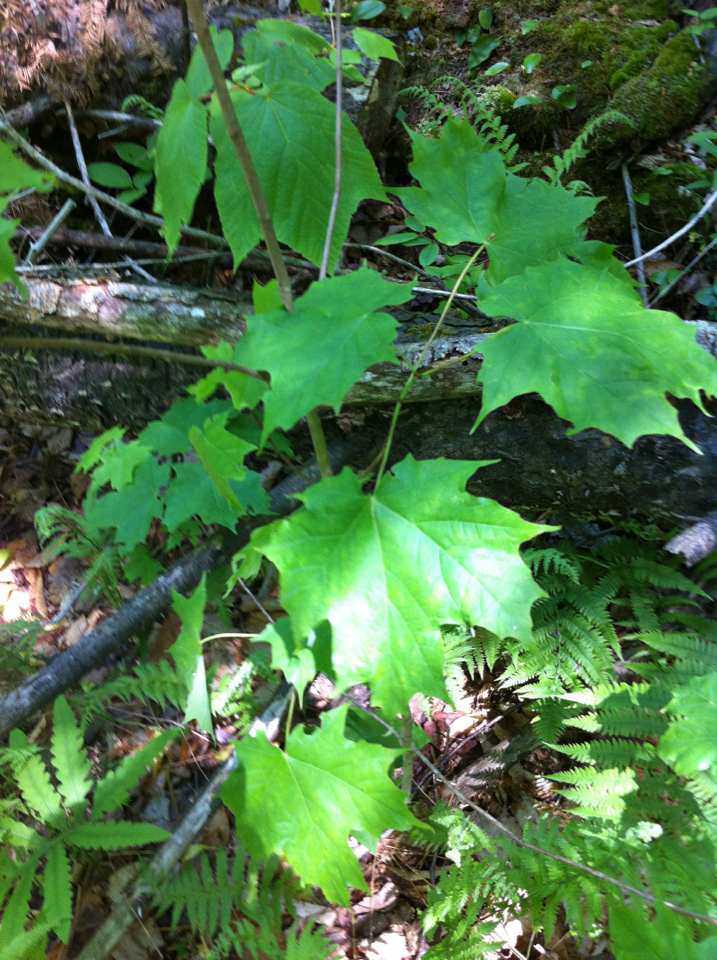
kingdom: Plantae
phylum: Tracheophyta
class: Magnoliopsida
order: Sapindales
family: Sapindaceae
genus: Acer
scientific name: Acer saccharum
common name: Sugar maple
